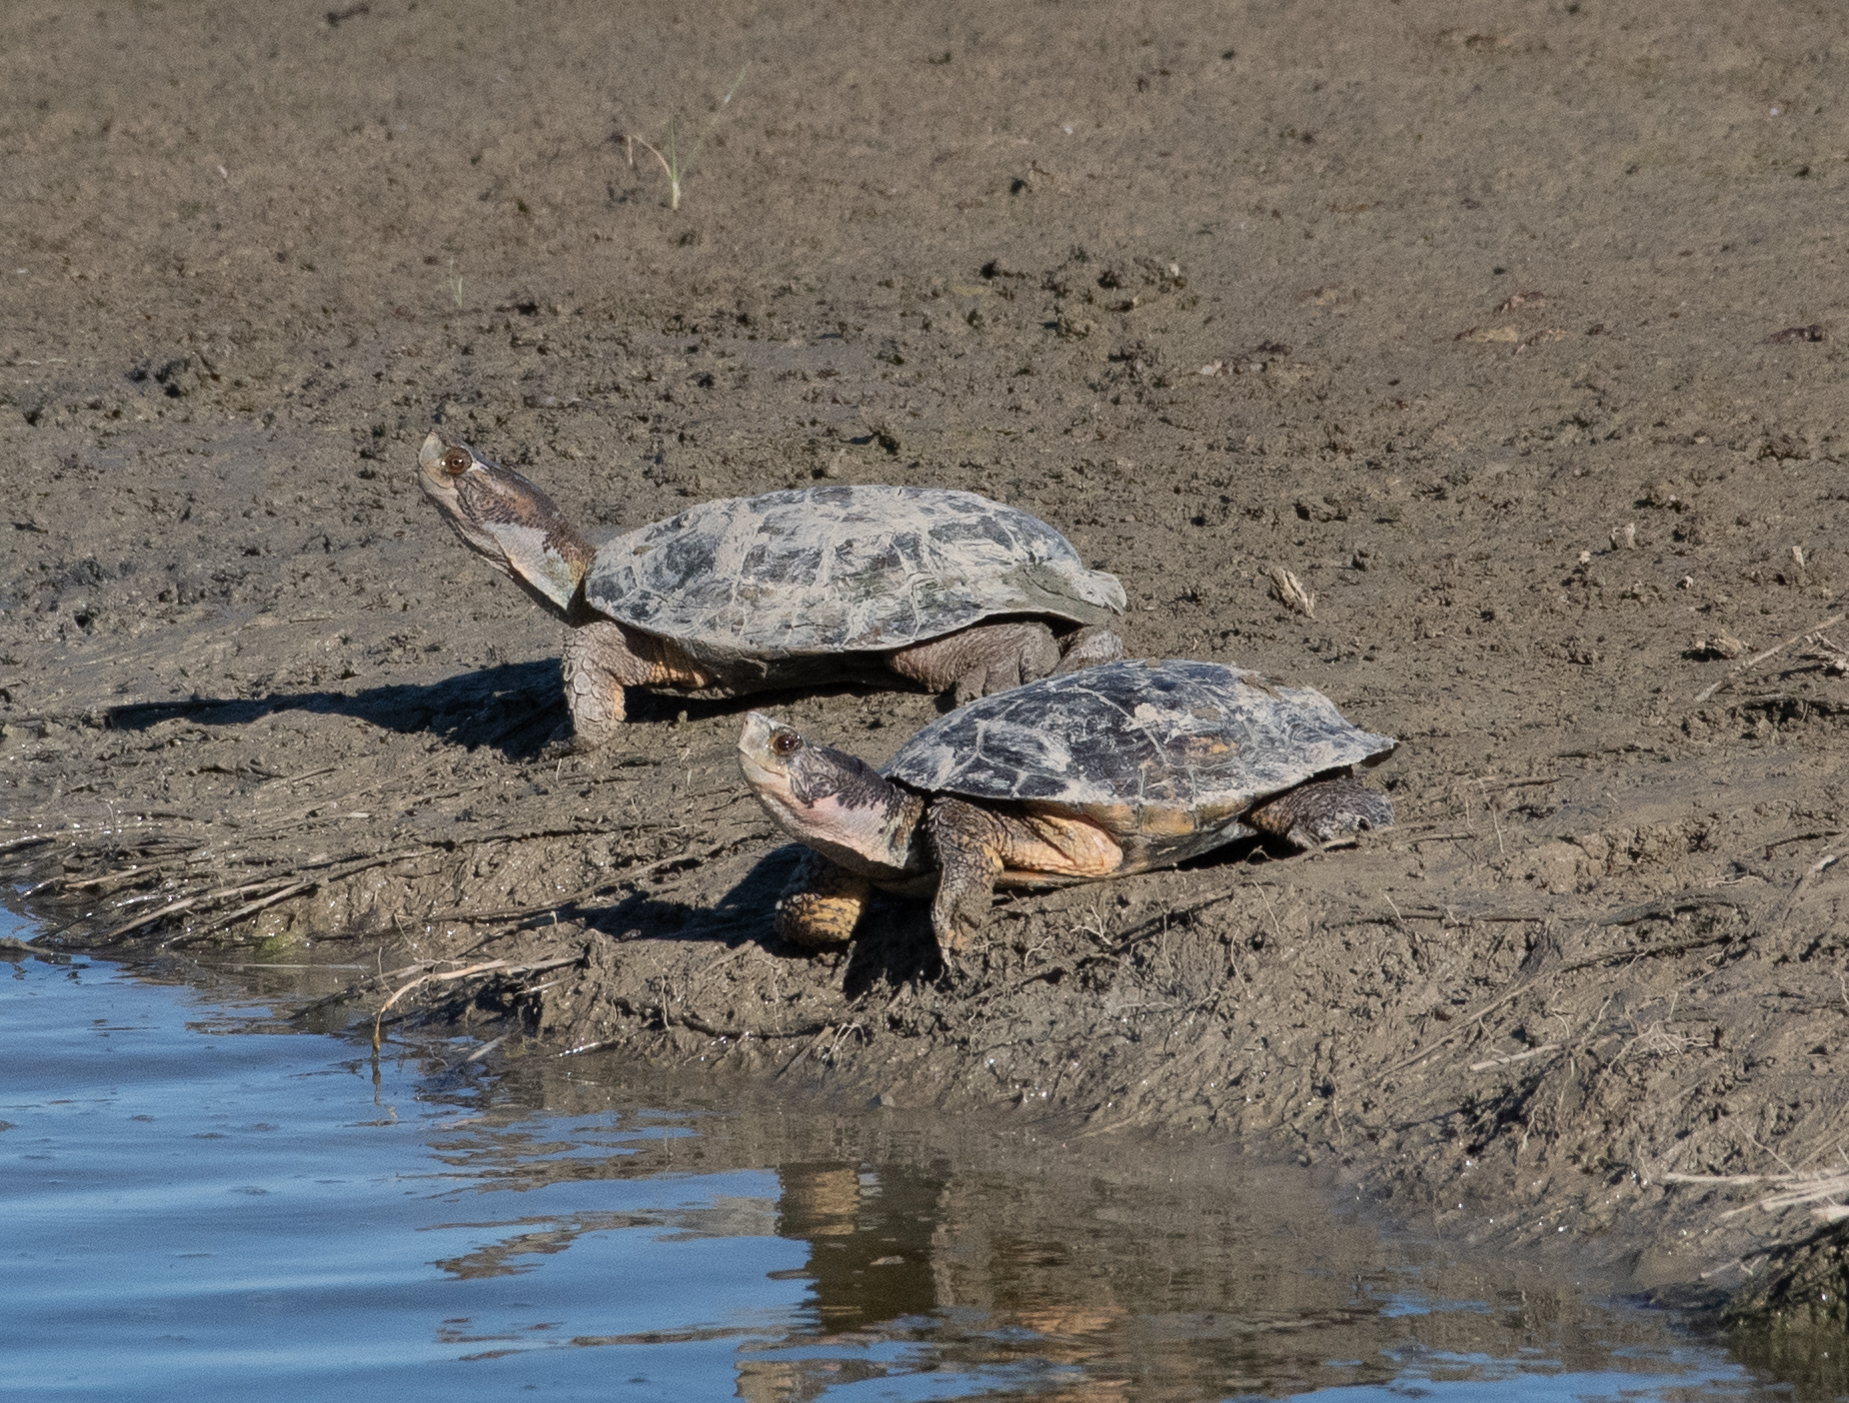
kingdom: Animalia
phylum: Chordata
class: Testudines
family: Emydidae
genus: Actinemys
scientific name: Actinemys marmorata
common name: Western pond turtle
